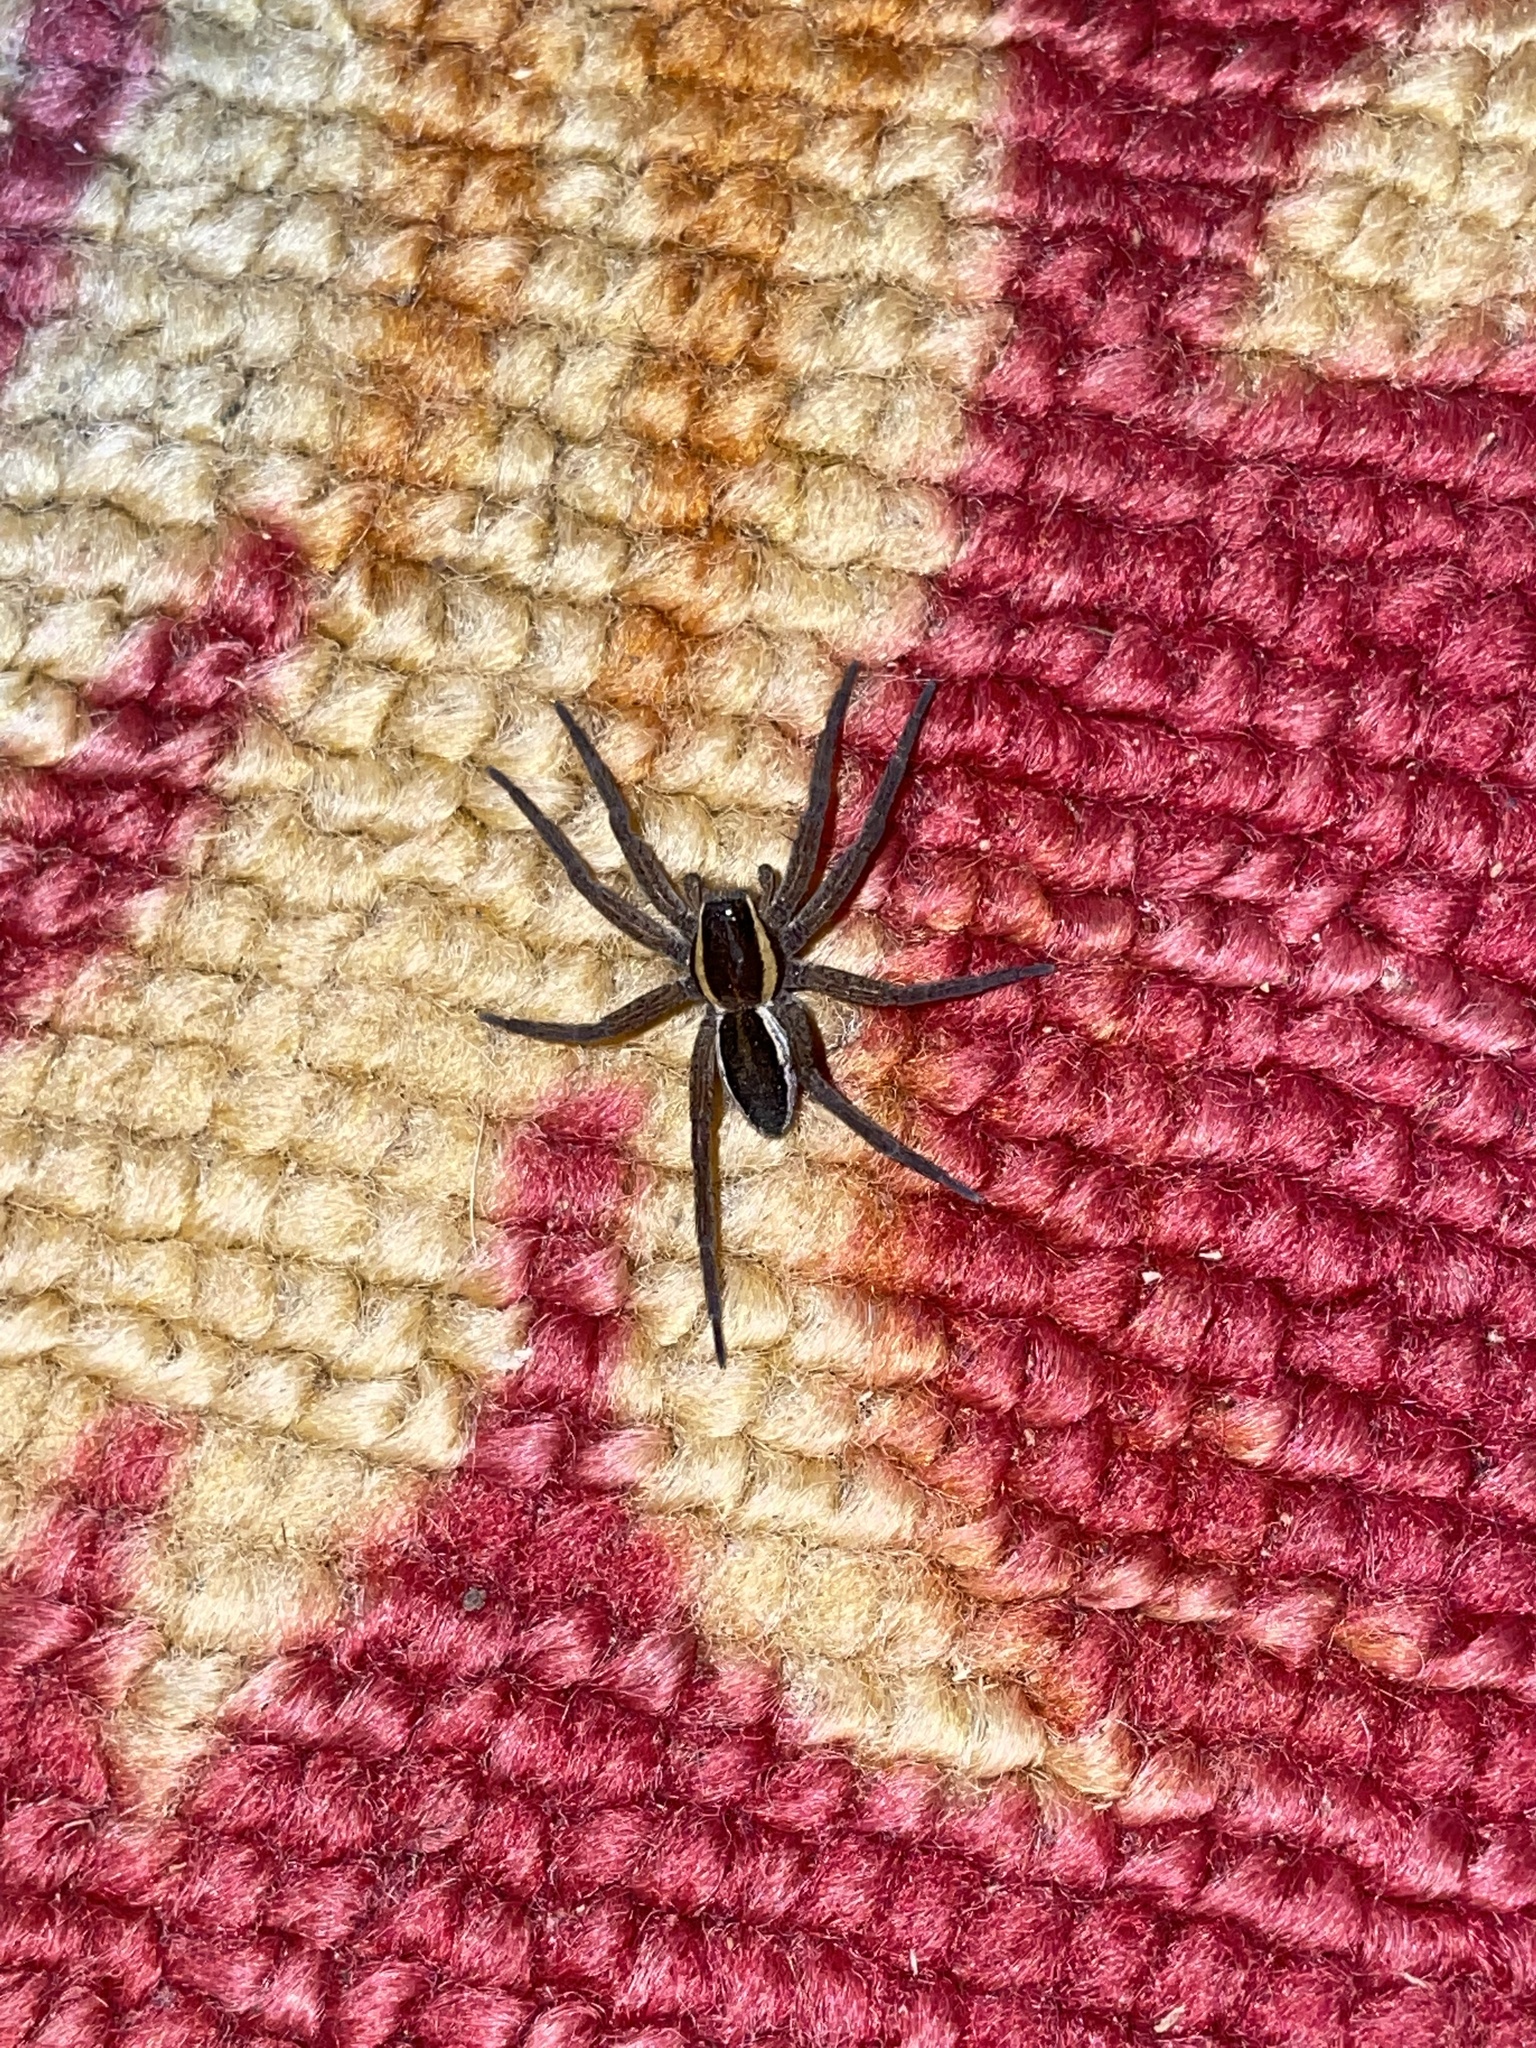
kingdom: Animalia
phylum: Arthropoda
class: Arachnida
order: Araneae
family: Pisauridae
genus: Dolomedes
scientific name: Dolomedes
